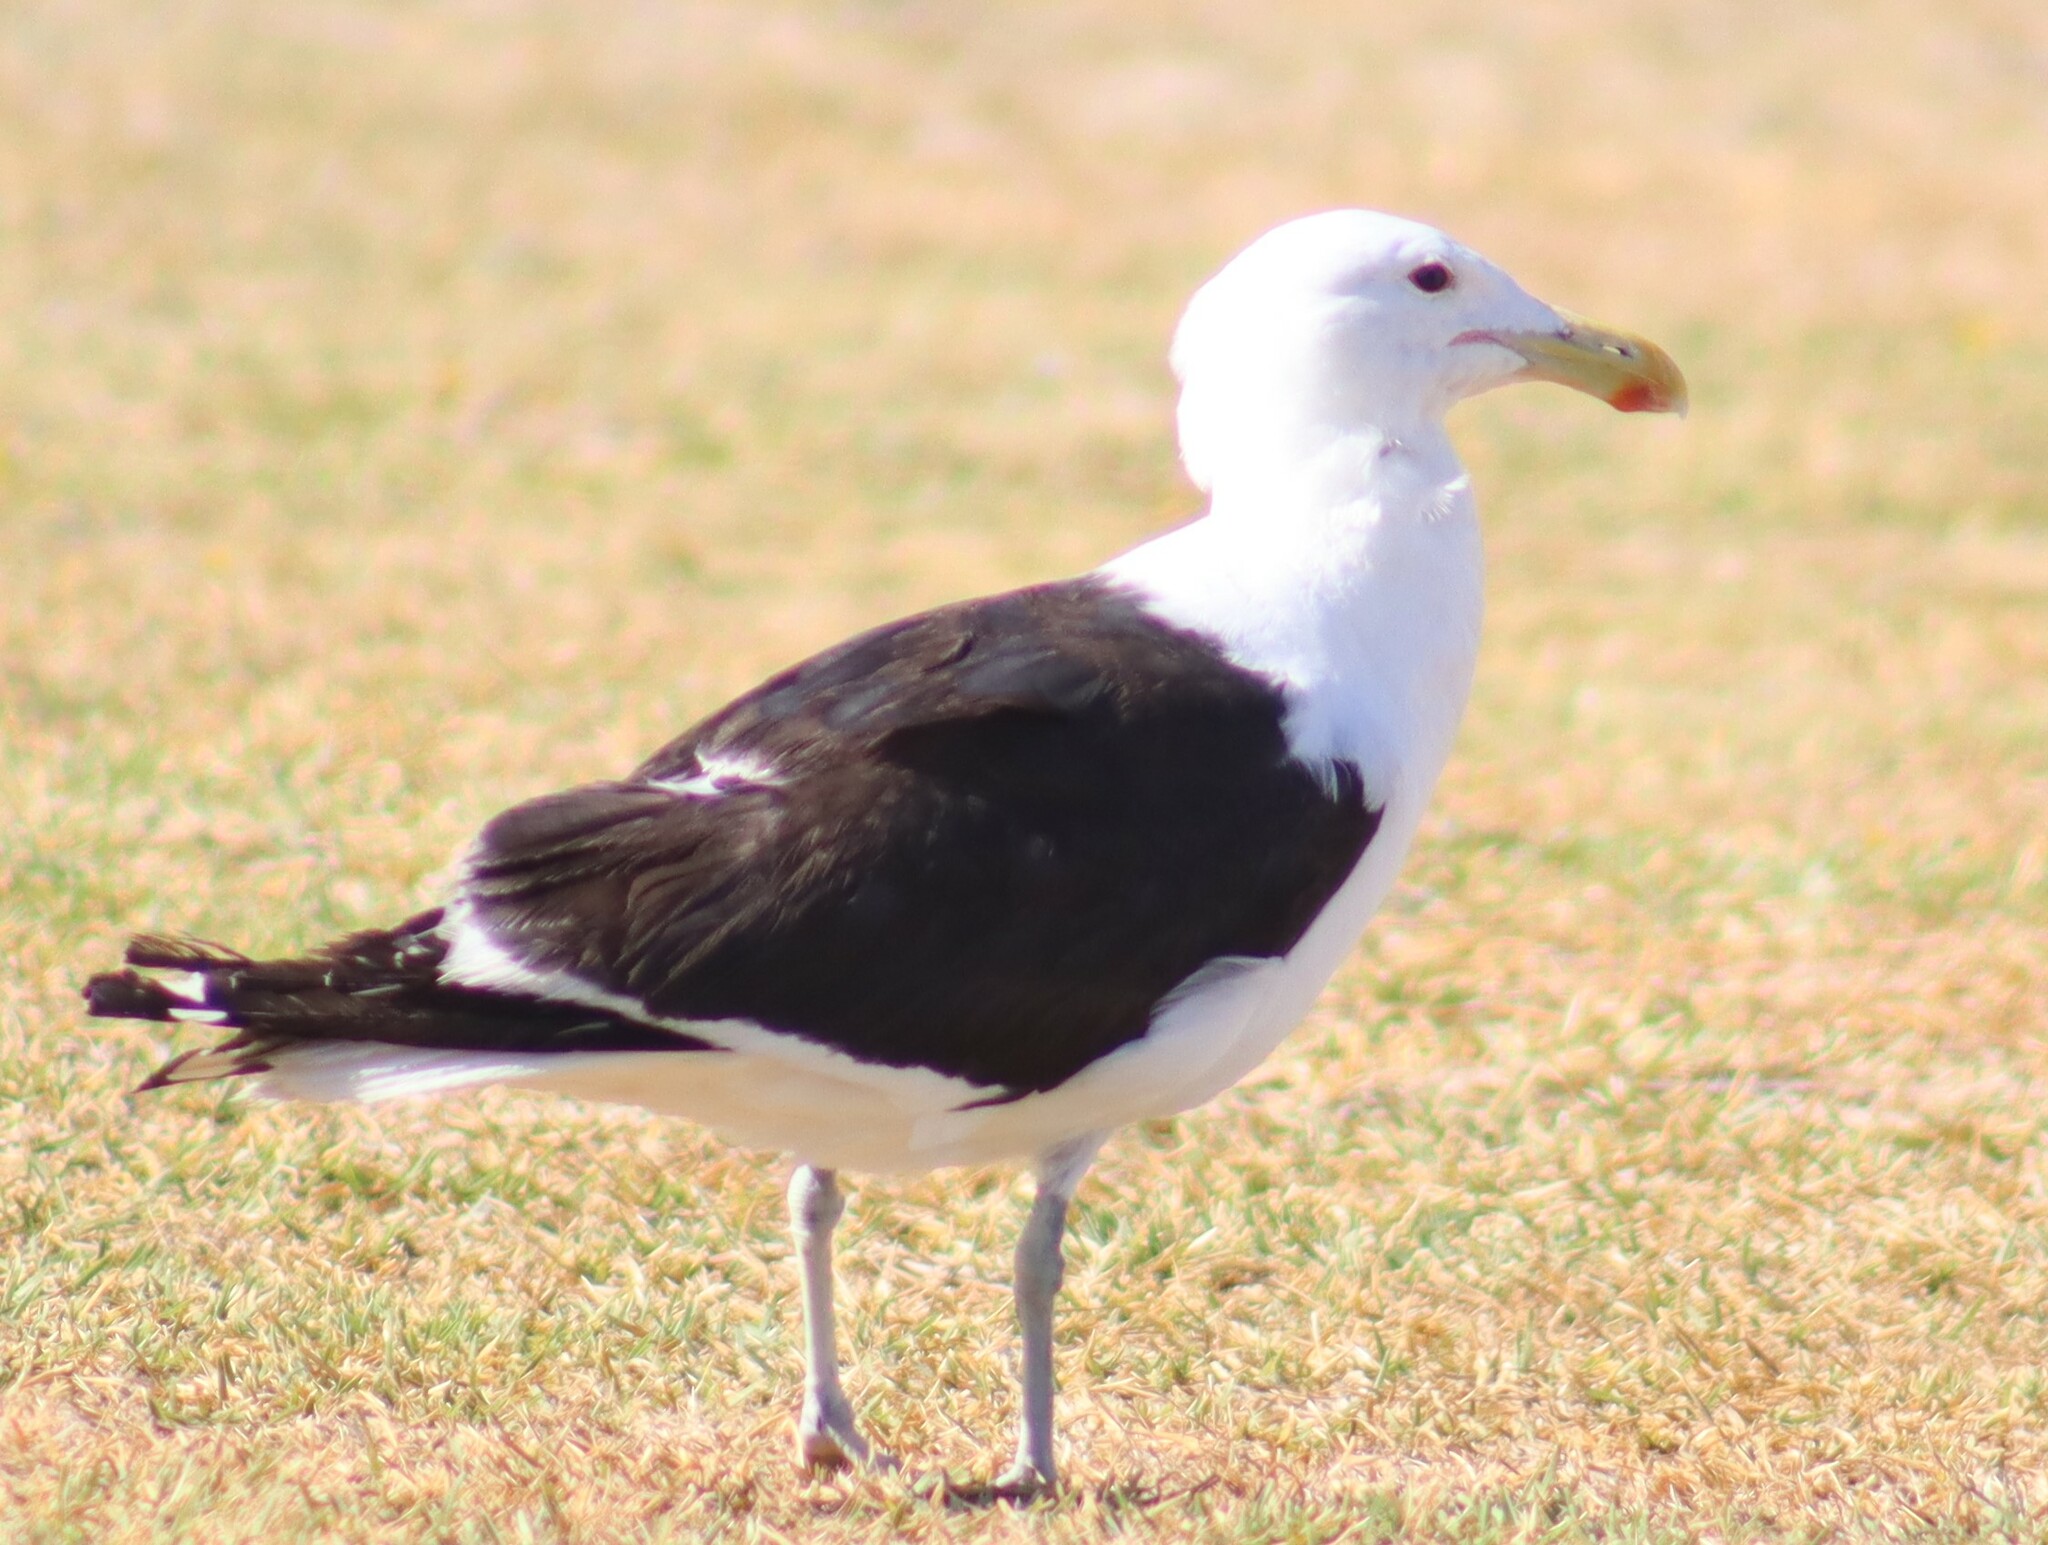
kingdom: Animalia
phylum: Chordata
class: Aves
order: Charadriiformes
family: Laridae
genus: Larus
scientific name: Larus dominicanus
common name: Kelp gull
